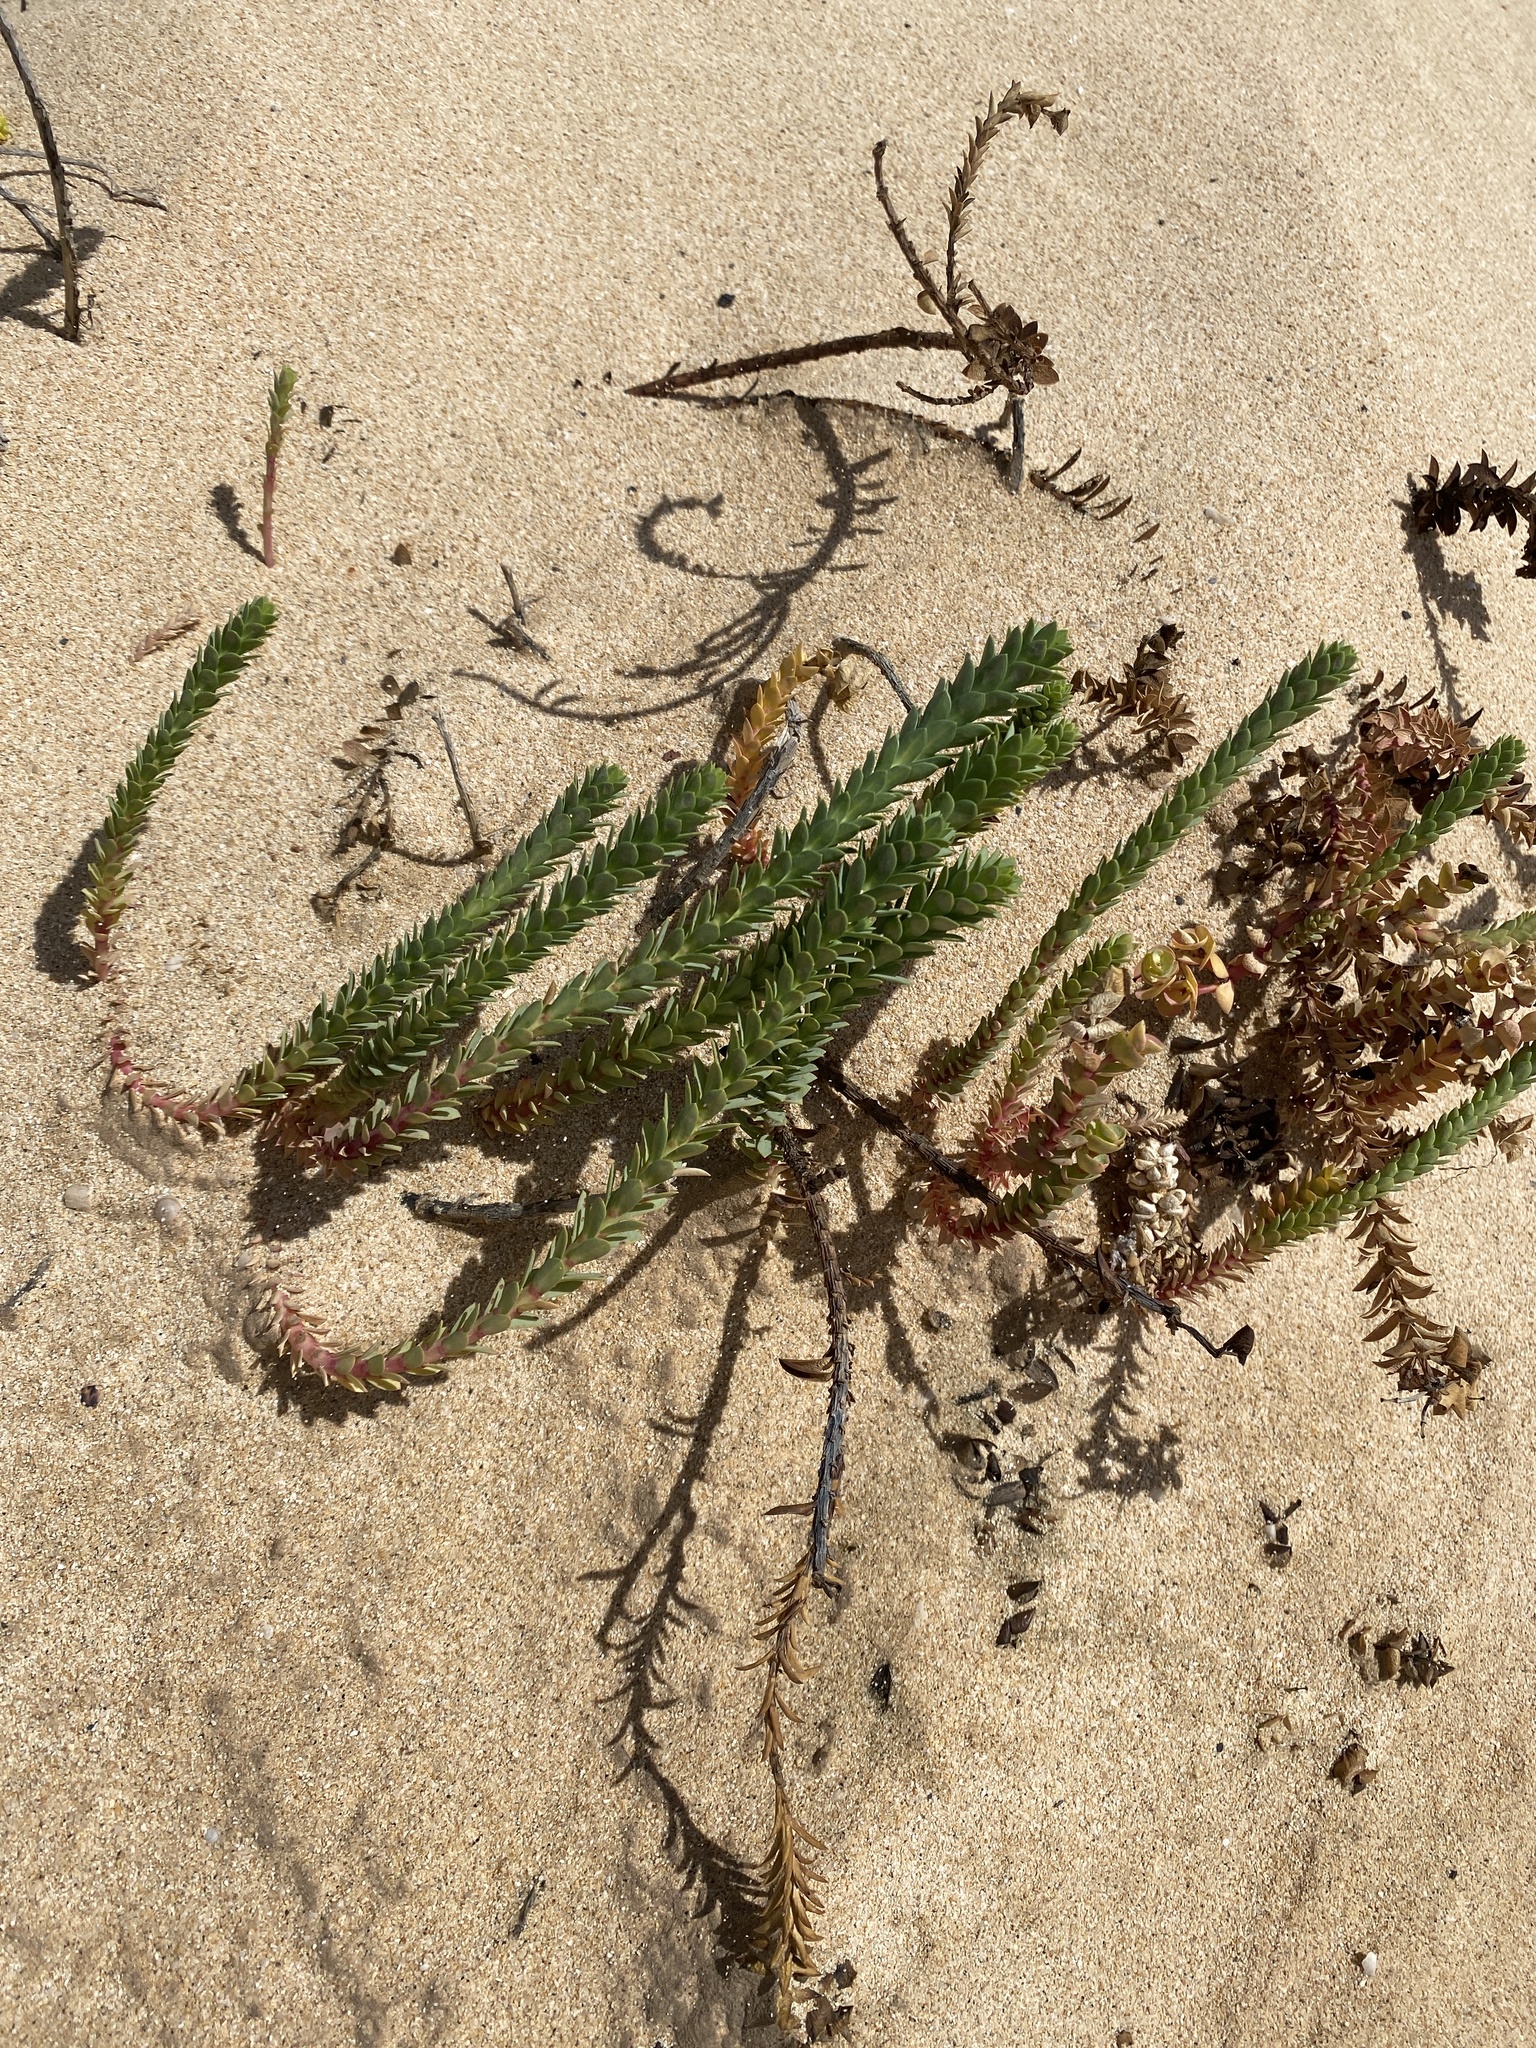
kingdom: Plantae
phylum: Tracheophyta
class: Magnoliopsida
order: Malpighiales
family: Euphorbiaceae
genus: Euphorbia
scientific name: Euphorbia paralias
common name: Sea spurge
